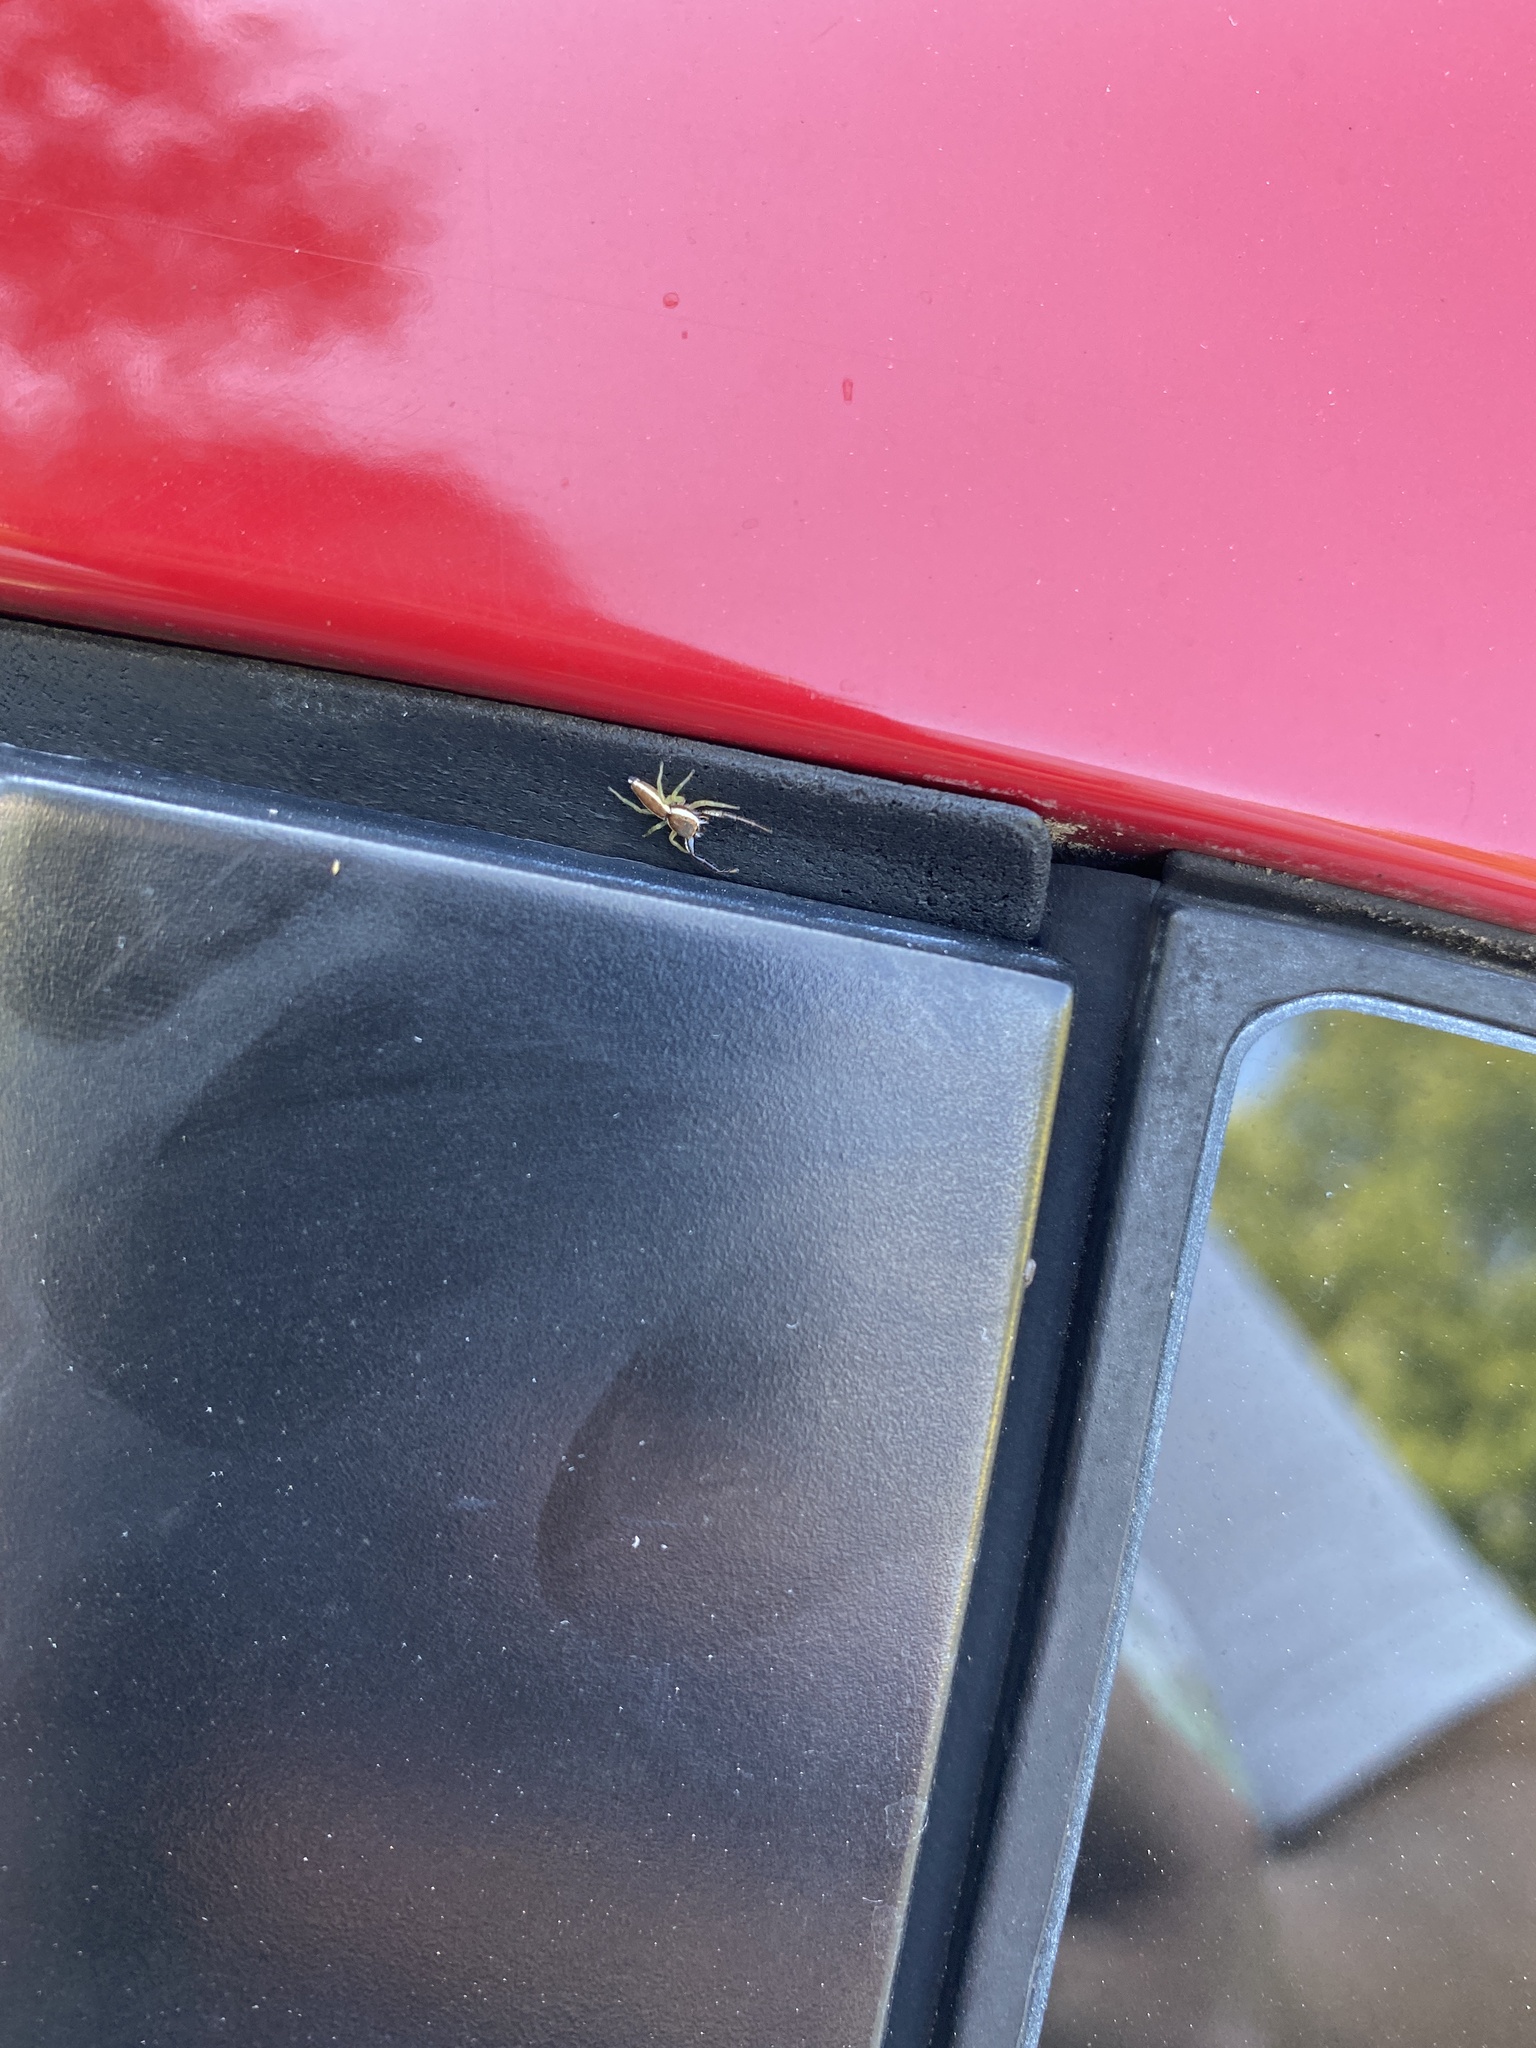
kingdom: Animalia
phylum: Arthropoda
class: Arachnida
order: Araneae
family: Salticidae
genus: Hentzia
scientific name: Hentzia palmarum
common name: Common hentz jumping spider
